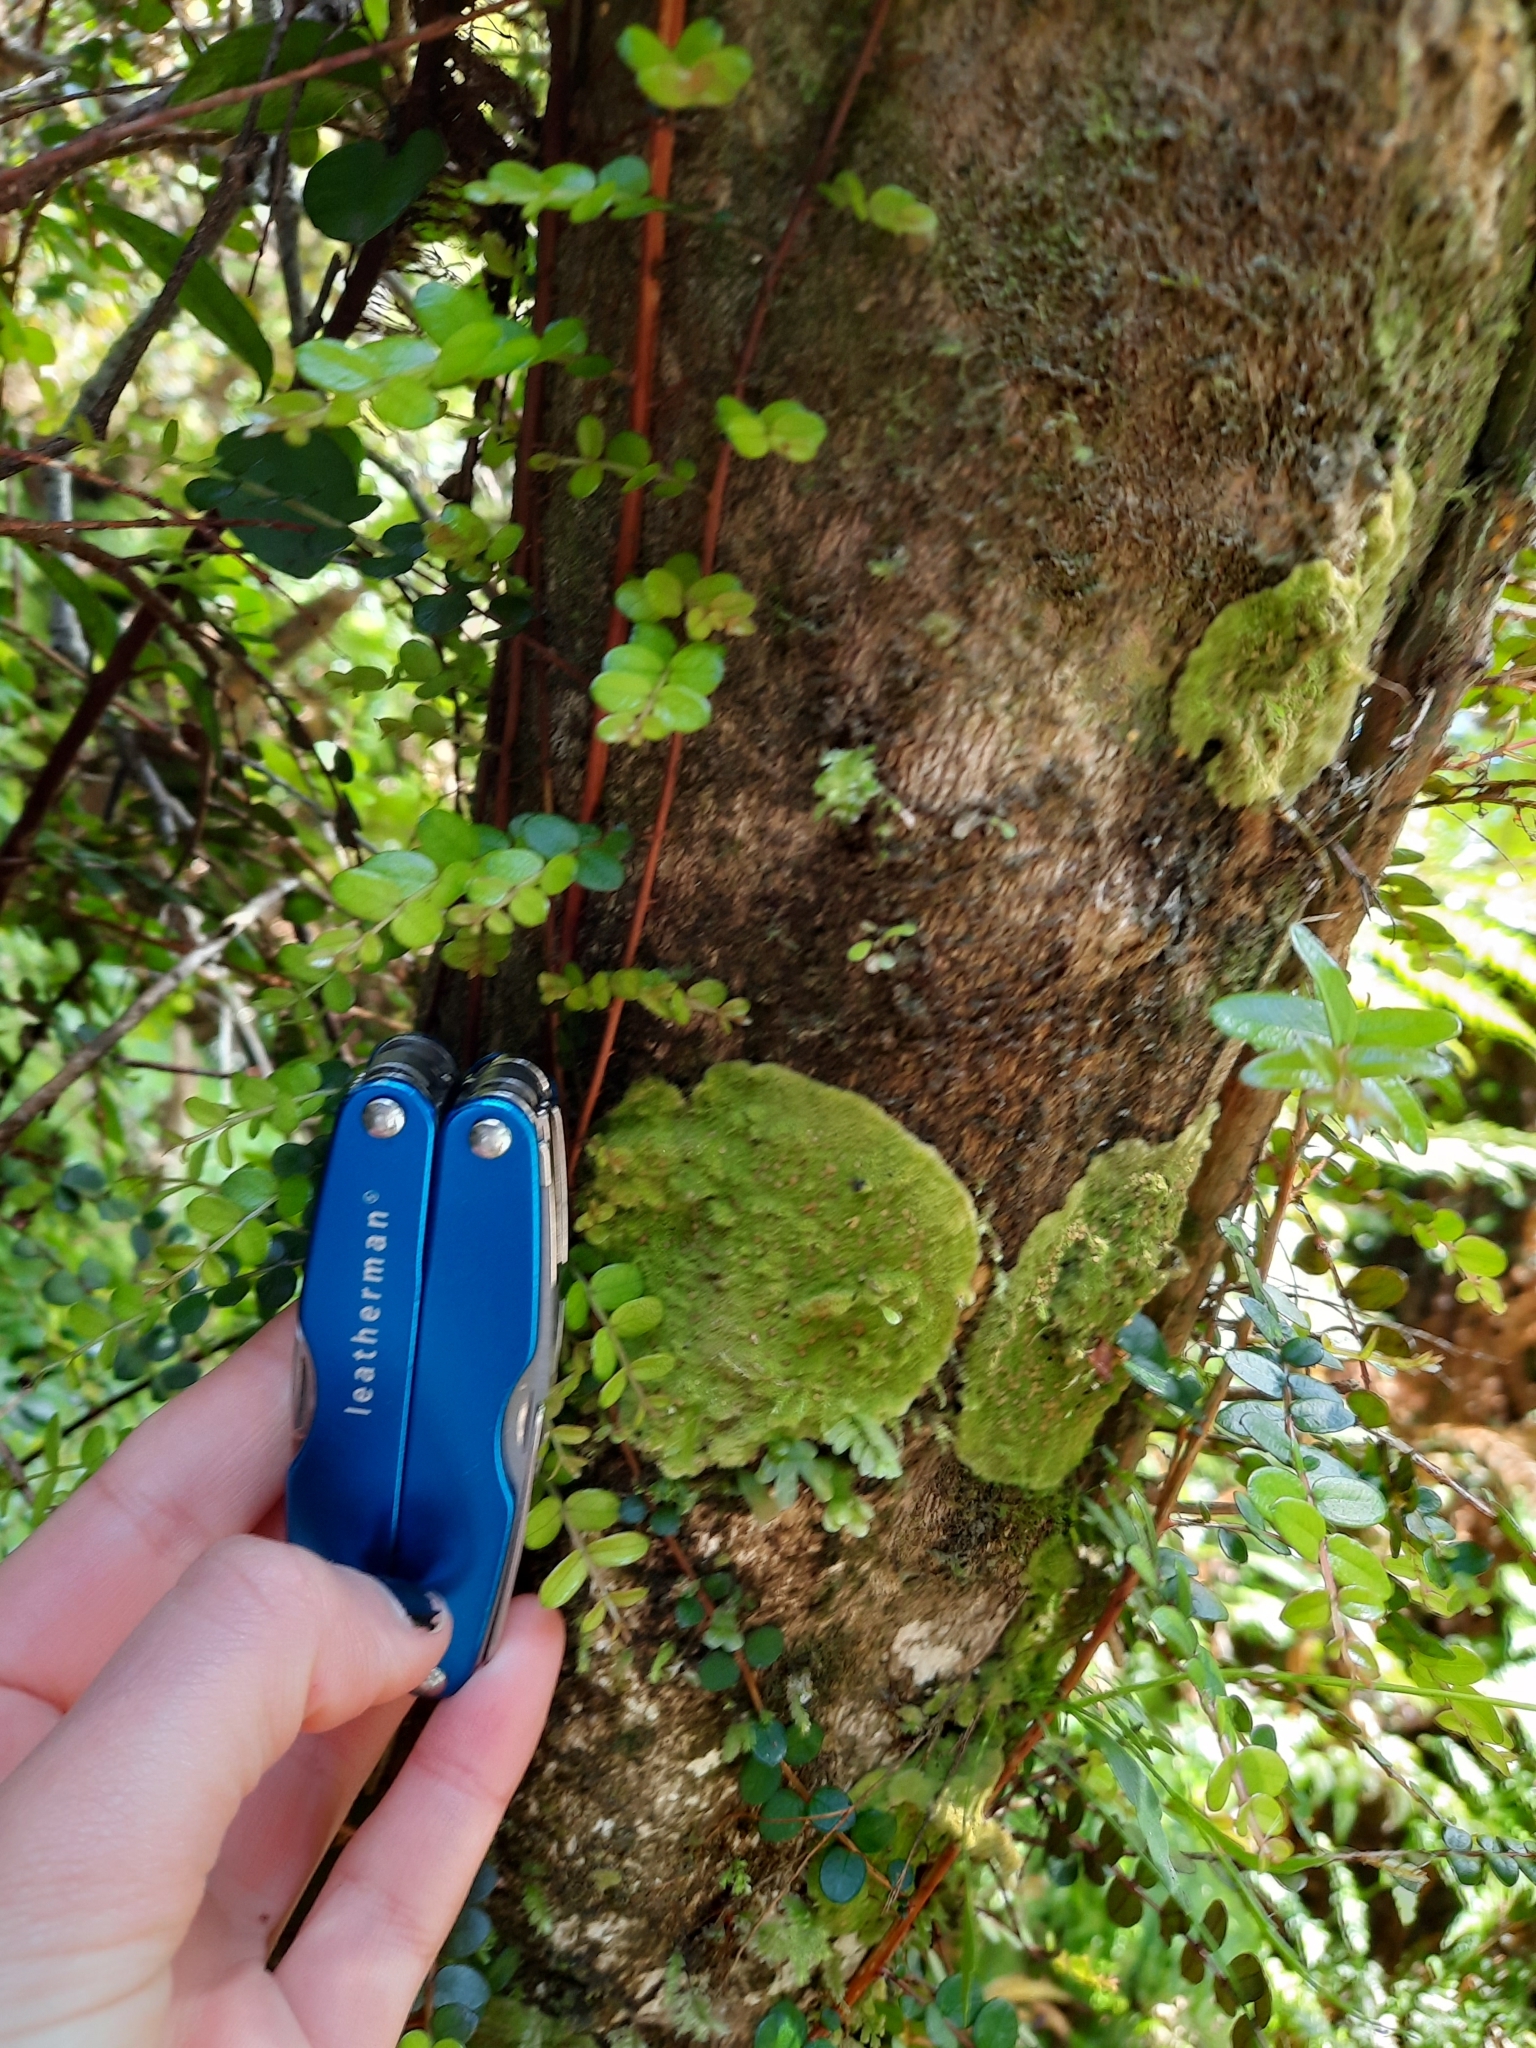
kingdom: Fungi
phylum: Ascomycota
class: Lecanoromycetes
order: Ostropales
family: Coenogoniaceae
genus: Coenogonium
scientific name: Coenogonium implexum
